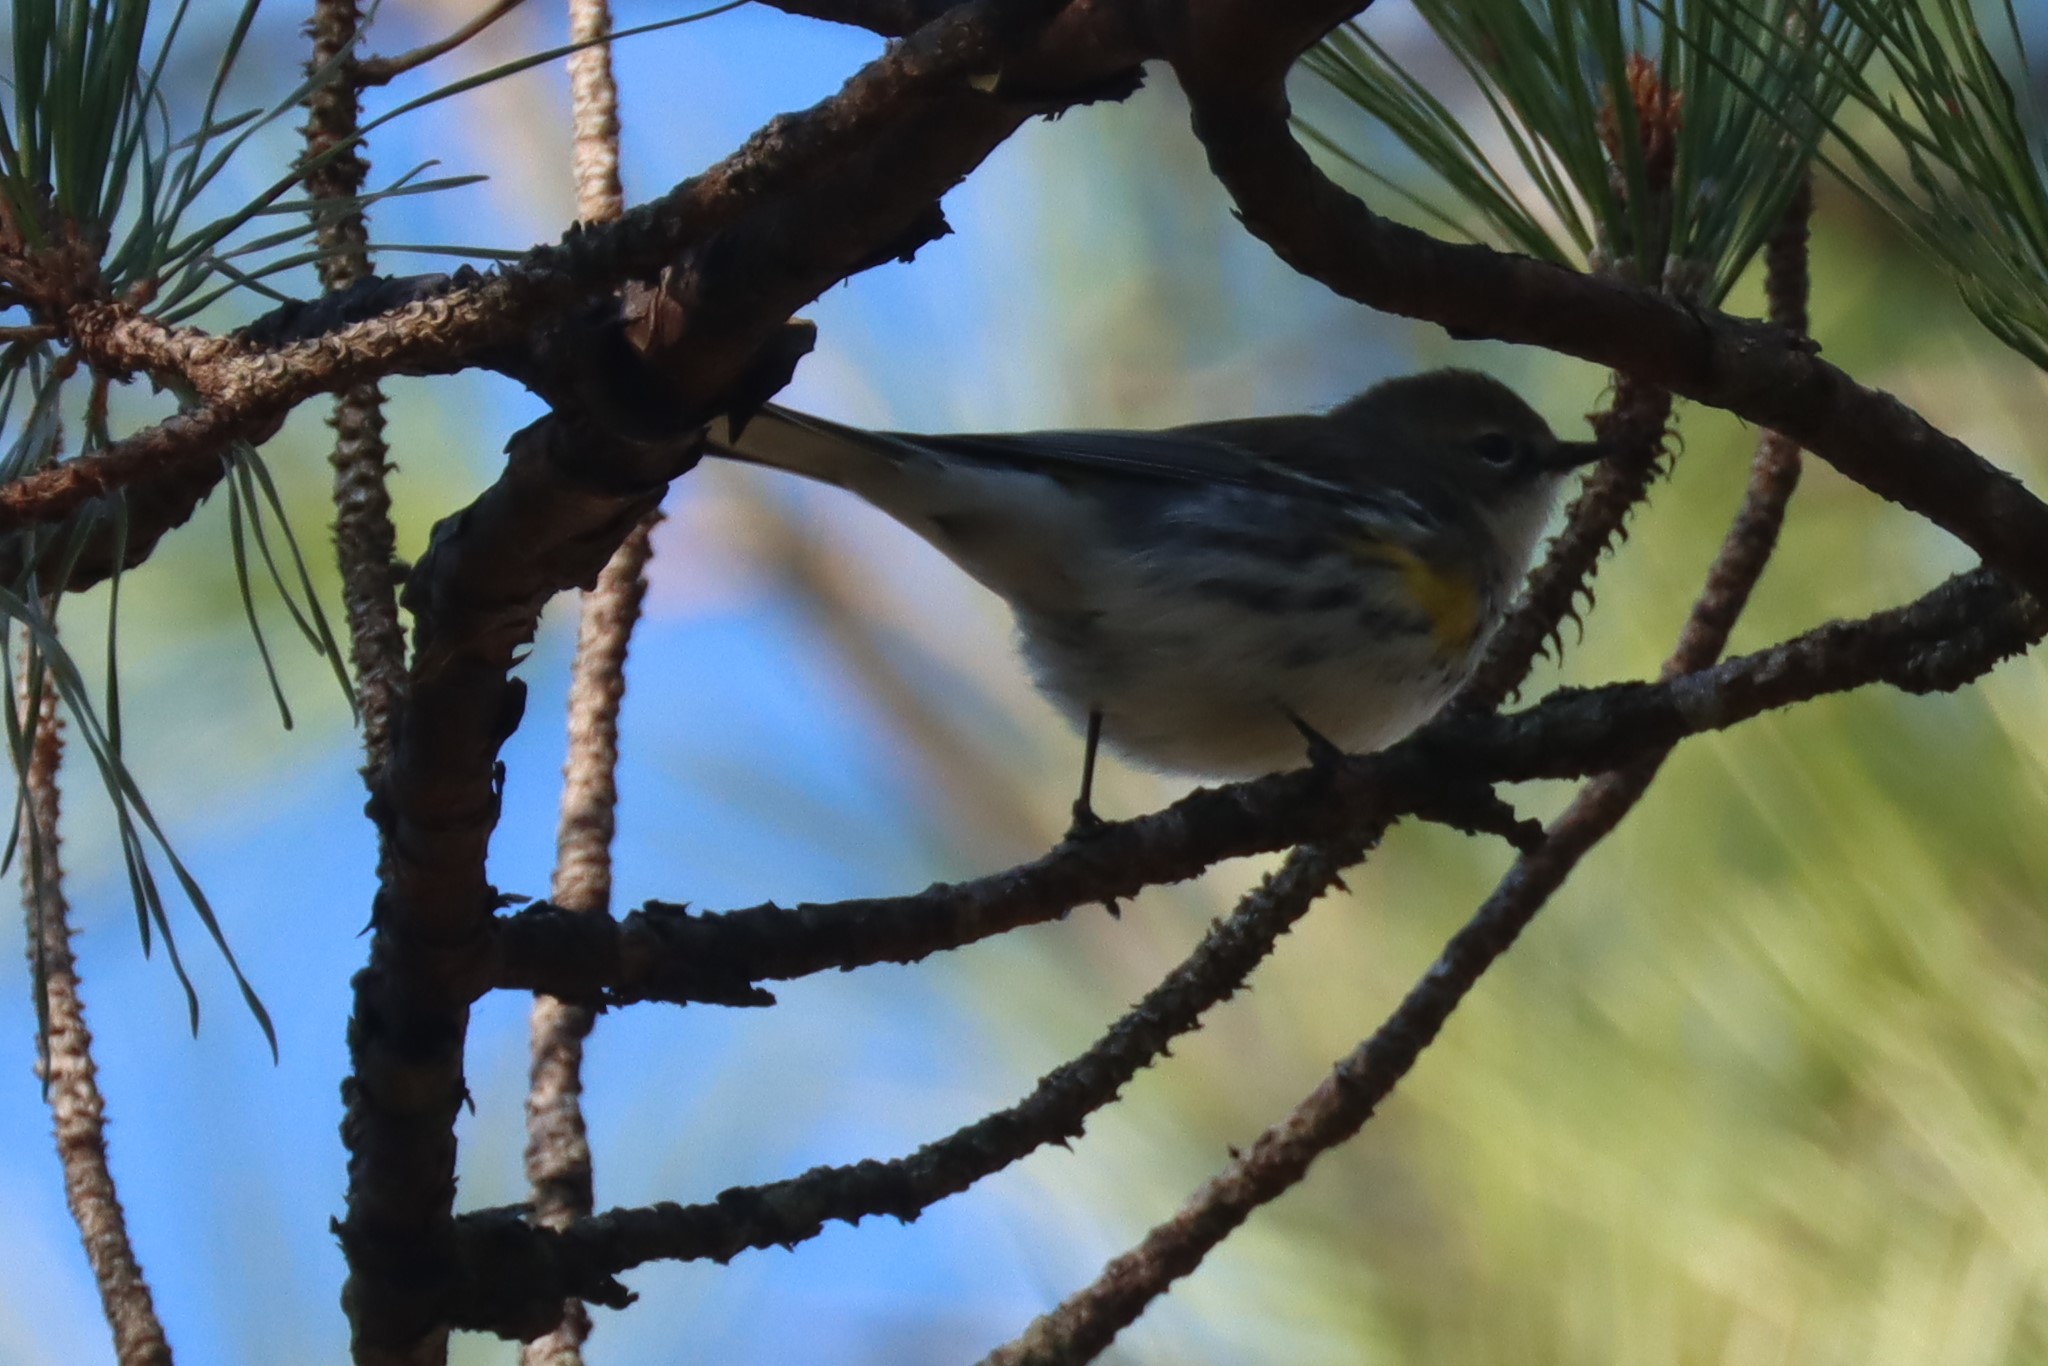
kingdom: Animalia
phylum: Chordata
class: Aves
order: Passeriformes
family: Parulidae
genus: Setophaga
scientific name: Setophaga coronata
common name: Myrtle warbler
